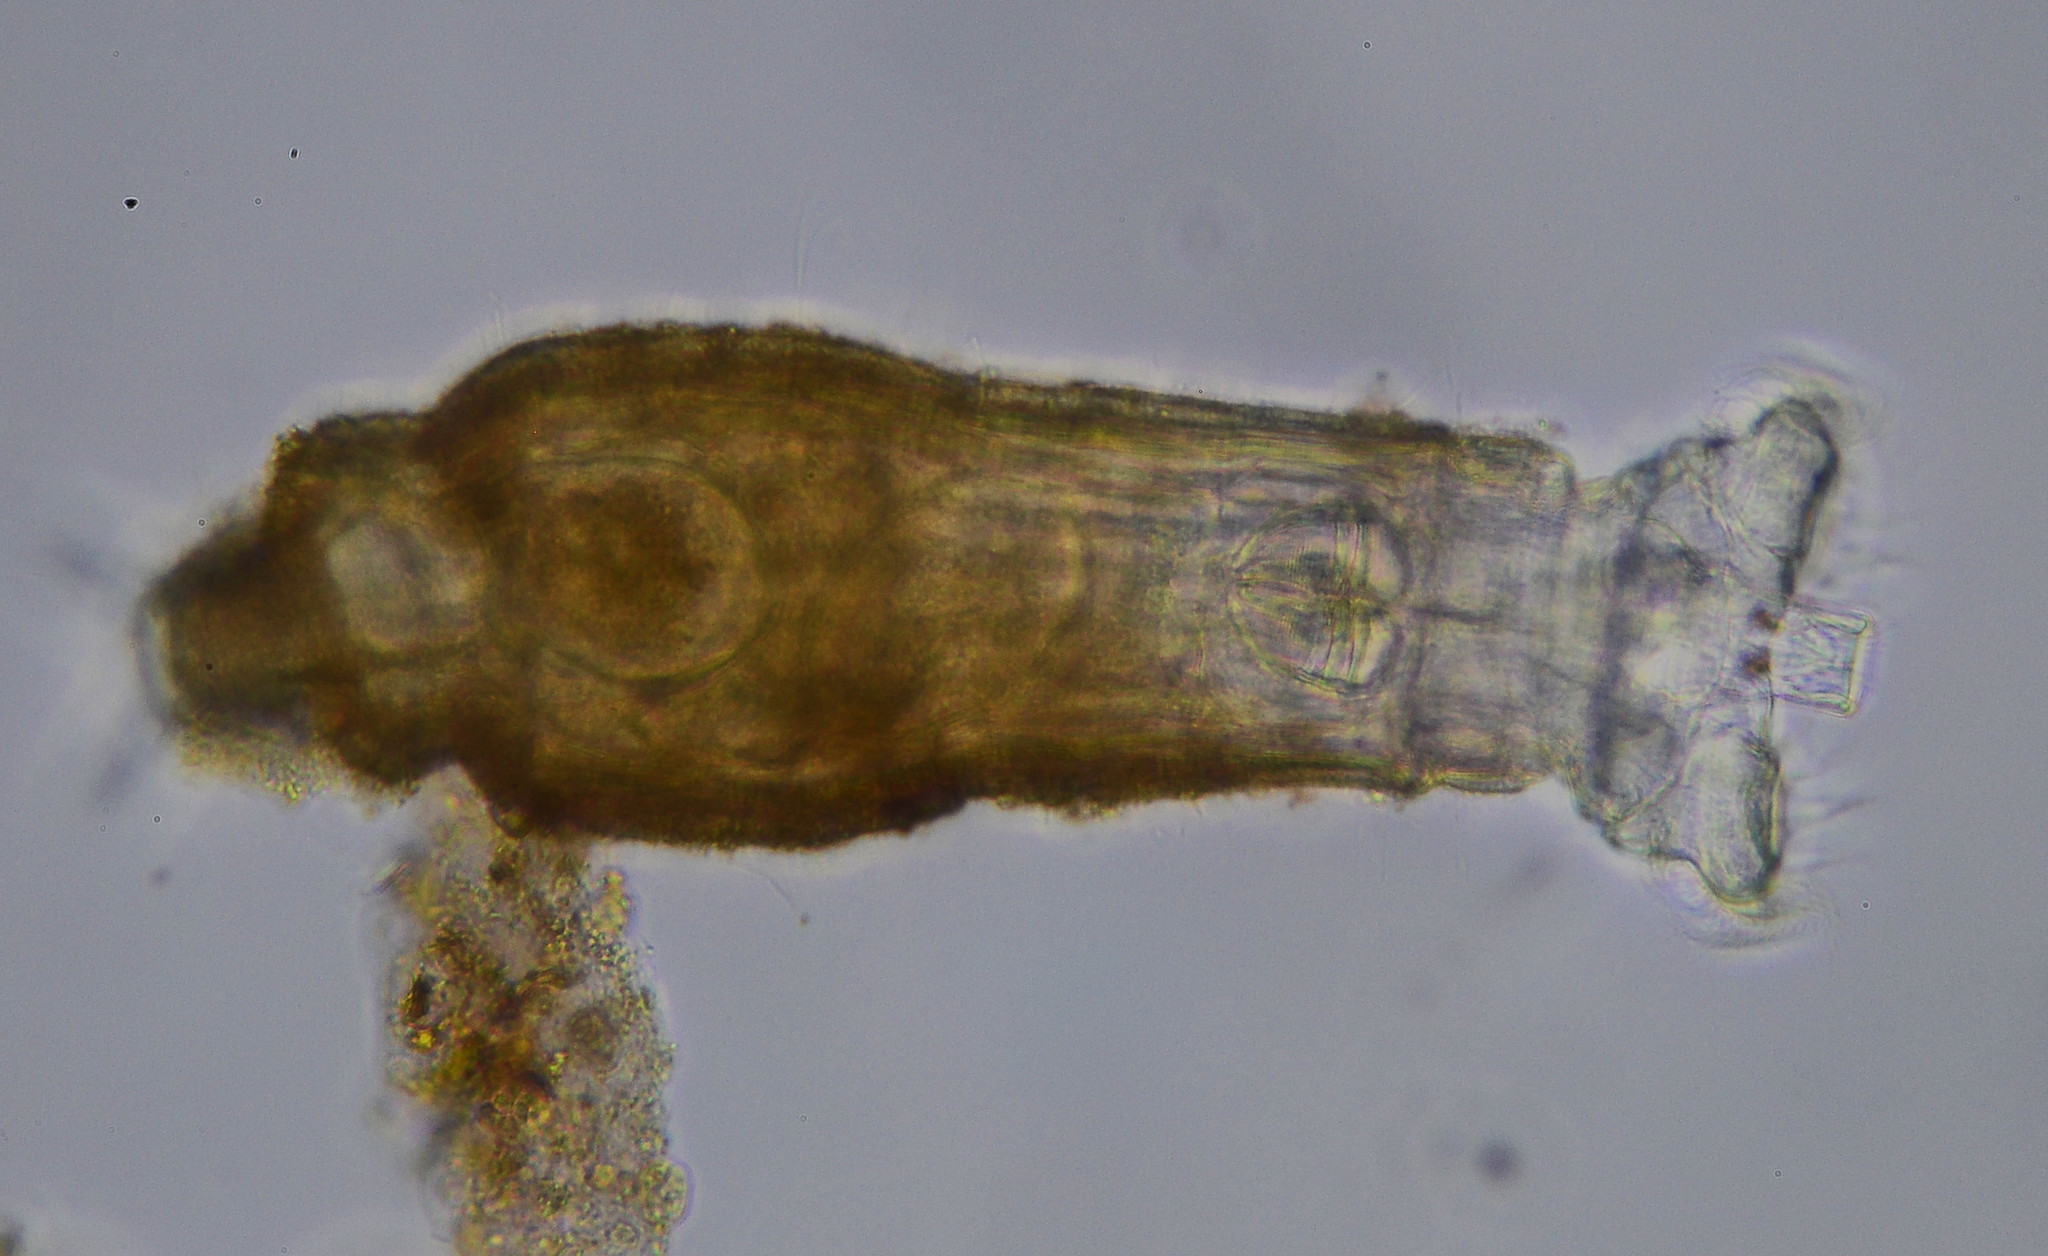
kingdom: Animalia
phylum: Rotifera
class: Eurotatoria
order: Bdelloidea
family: Philodinidae
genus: Rotaria
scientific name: Rotaria tardigrada
